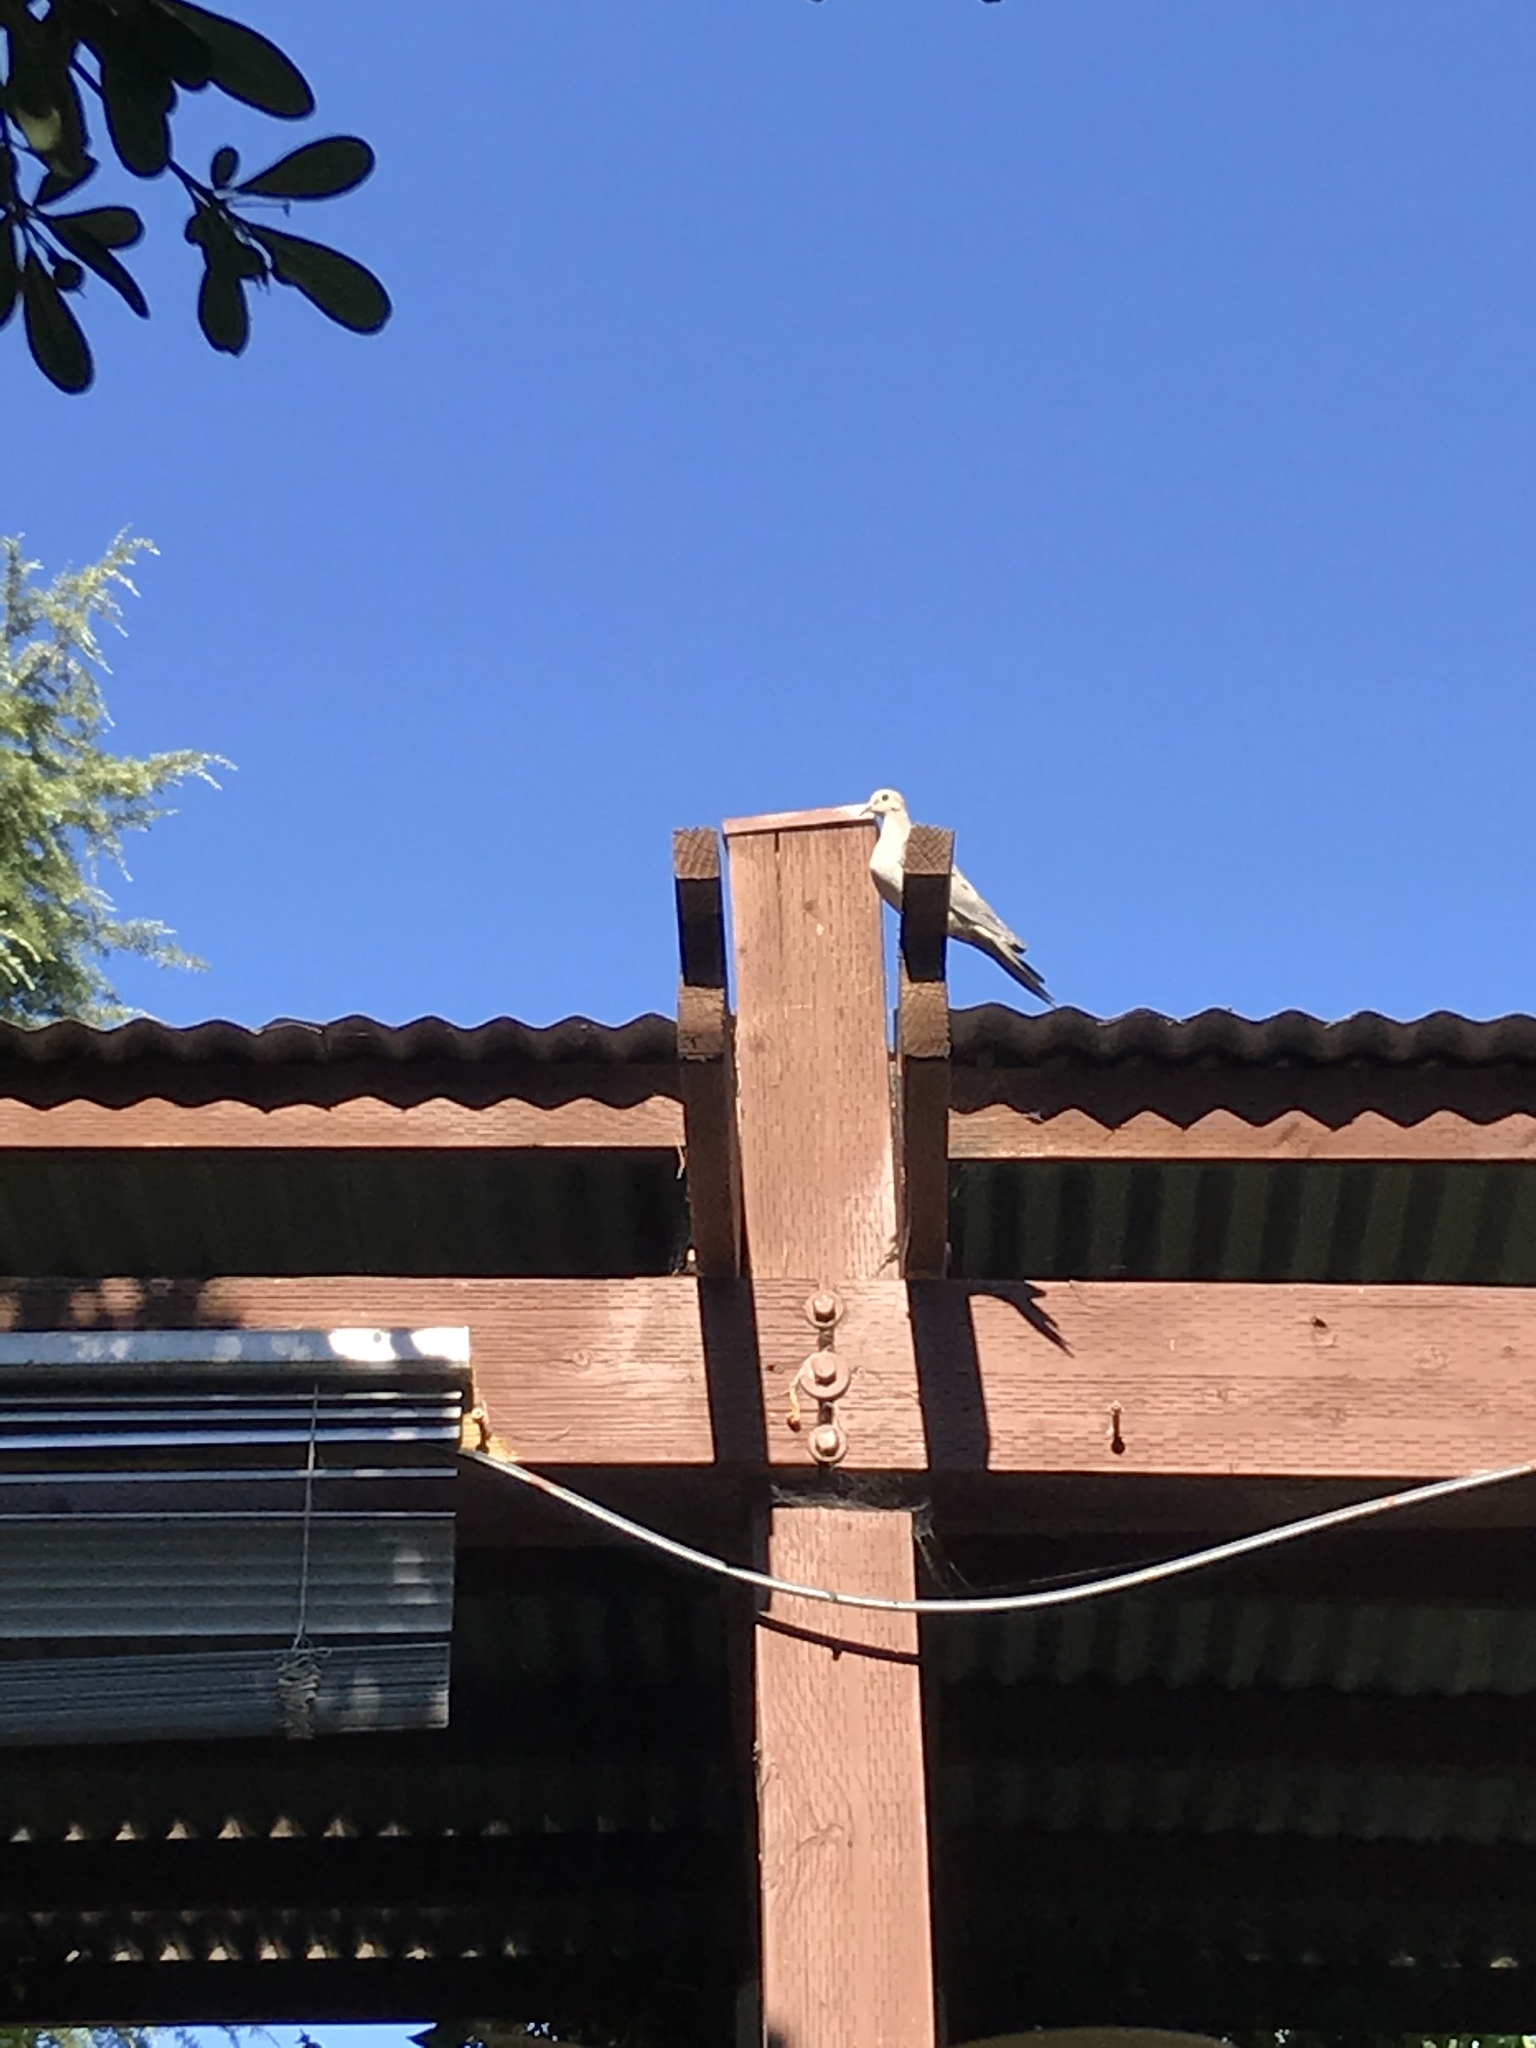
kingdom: Animalia
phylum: Chordata
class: Aves
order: Columbiformes
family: Columbidae
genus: Zenaida
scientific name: Zenaida macroura
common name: Mourning dove
